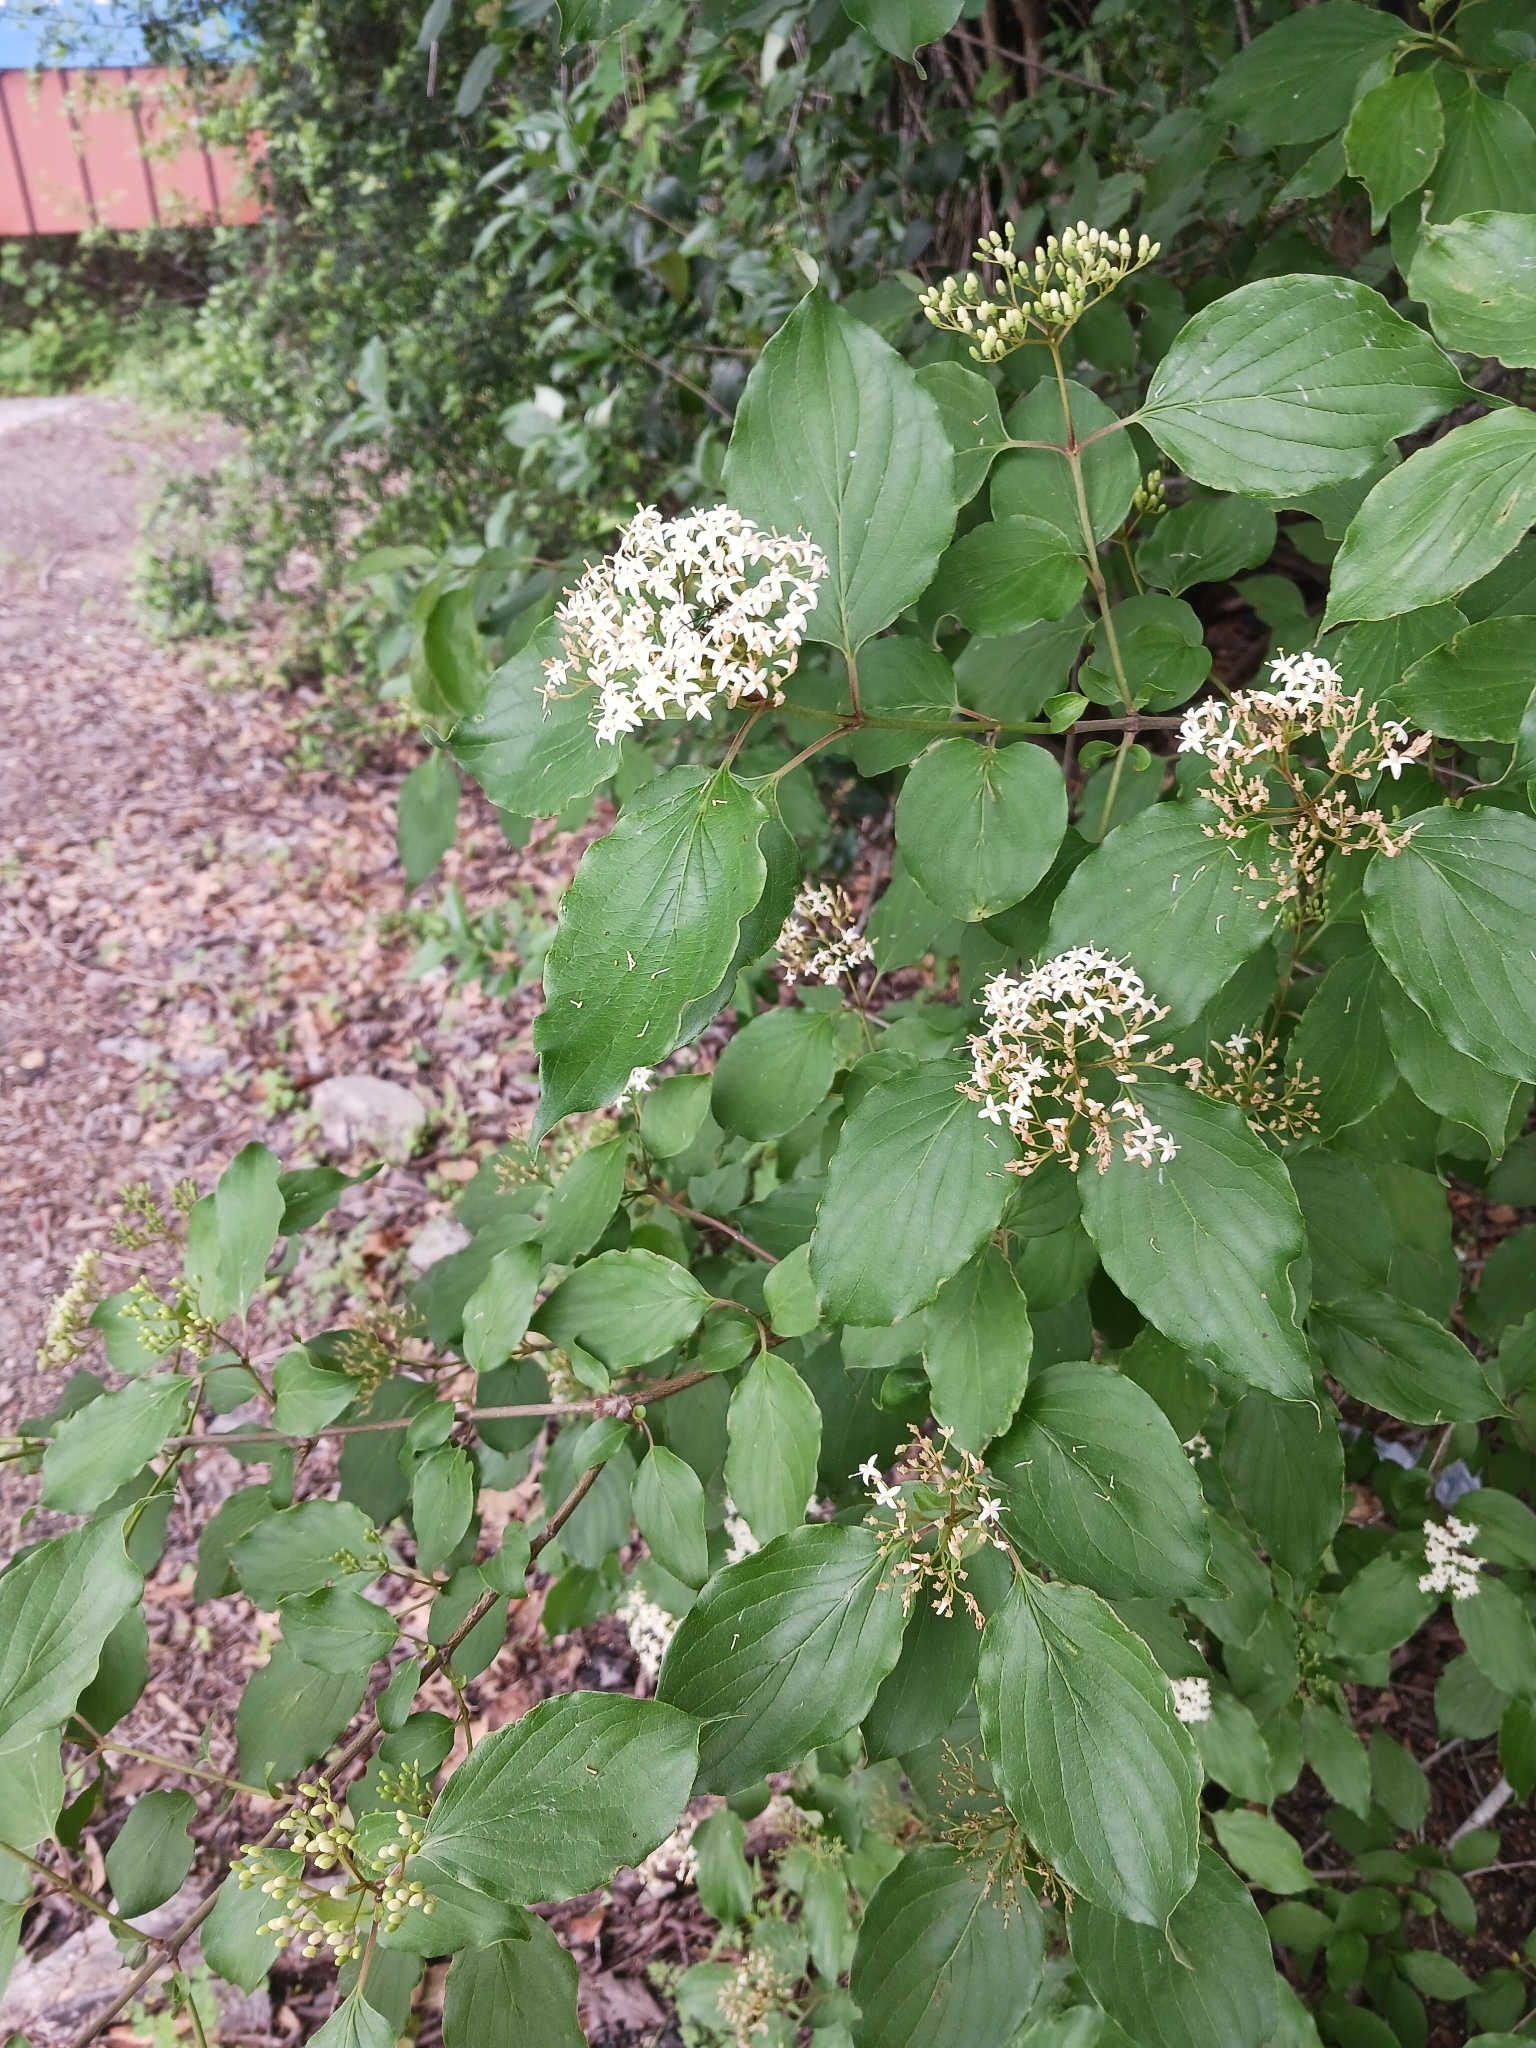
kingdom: Plantae
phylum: Tracheophyta
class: Magnoliopsida
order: Cornales
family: Cornaceae
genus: Cornus
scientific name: Cornus drummondii
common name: Rough-leaf dogwood
